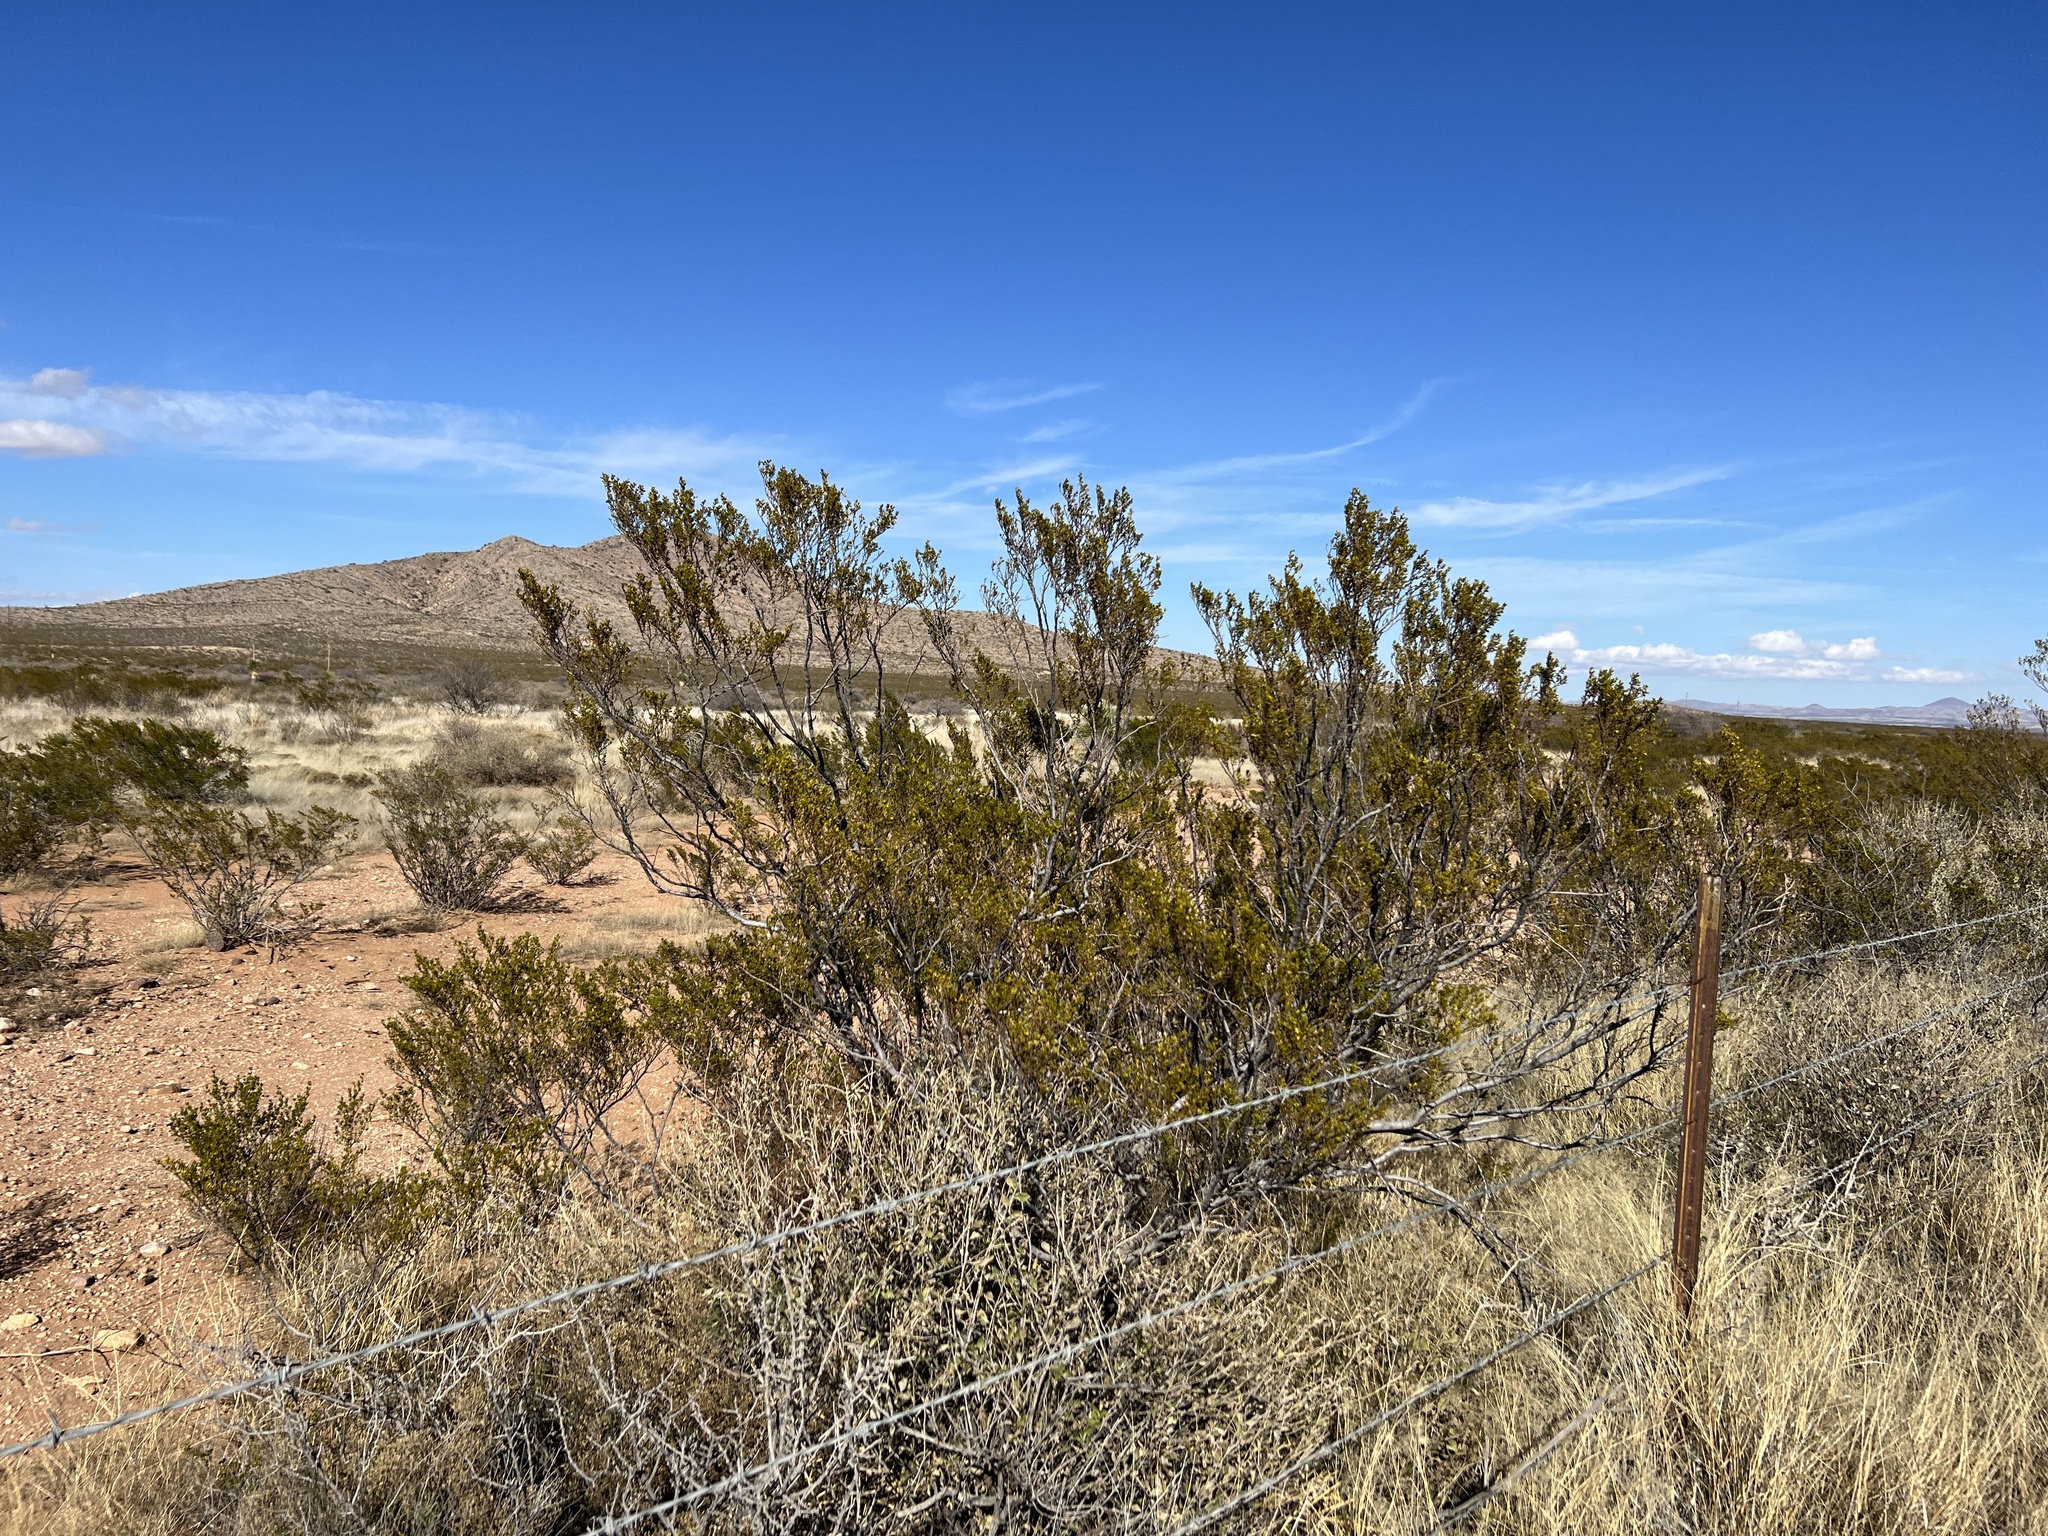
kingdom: Plantae
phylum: Tracheophyta
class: Magnoliopsida
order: Zygophyllales
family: Zygophyllaceae
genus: Larrea
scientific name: Larrea tridentata
